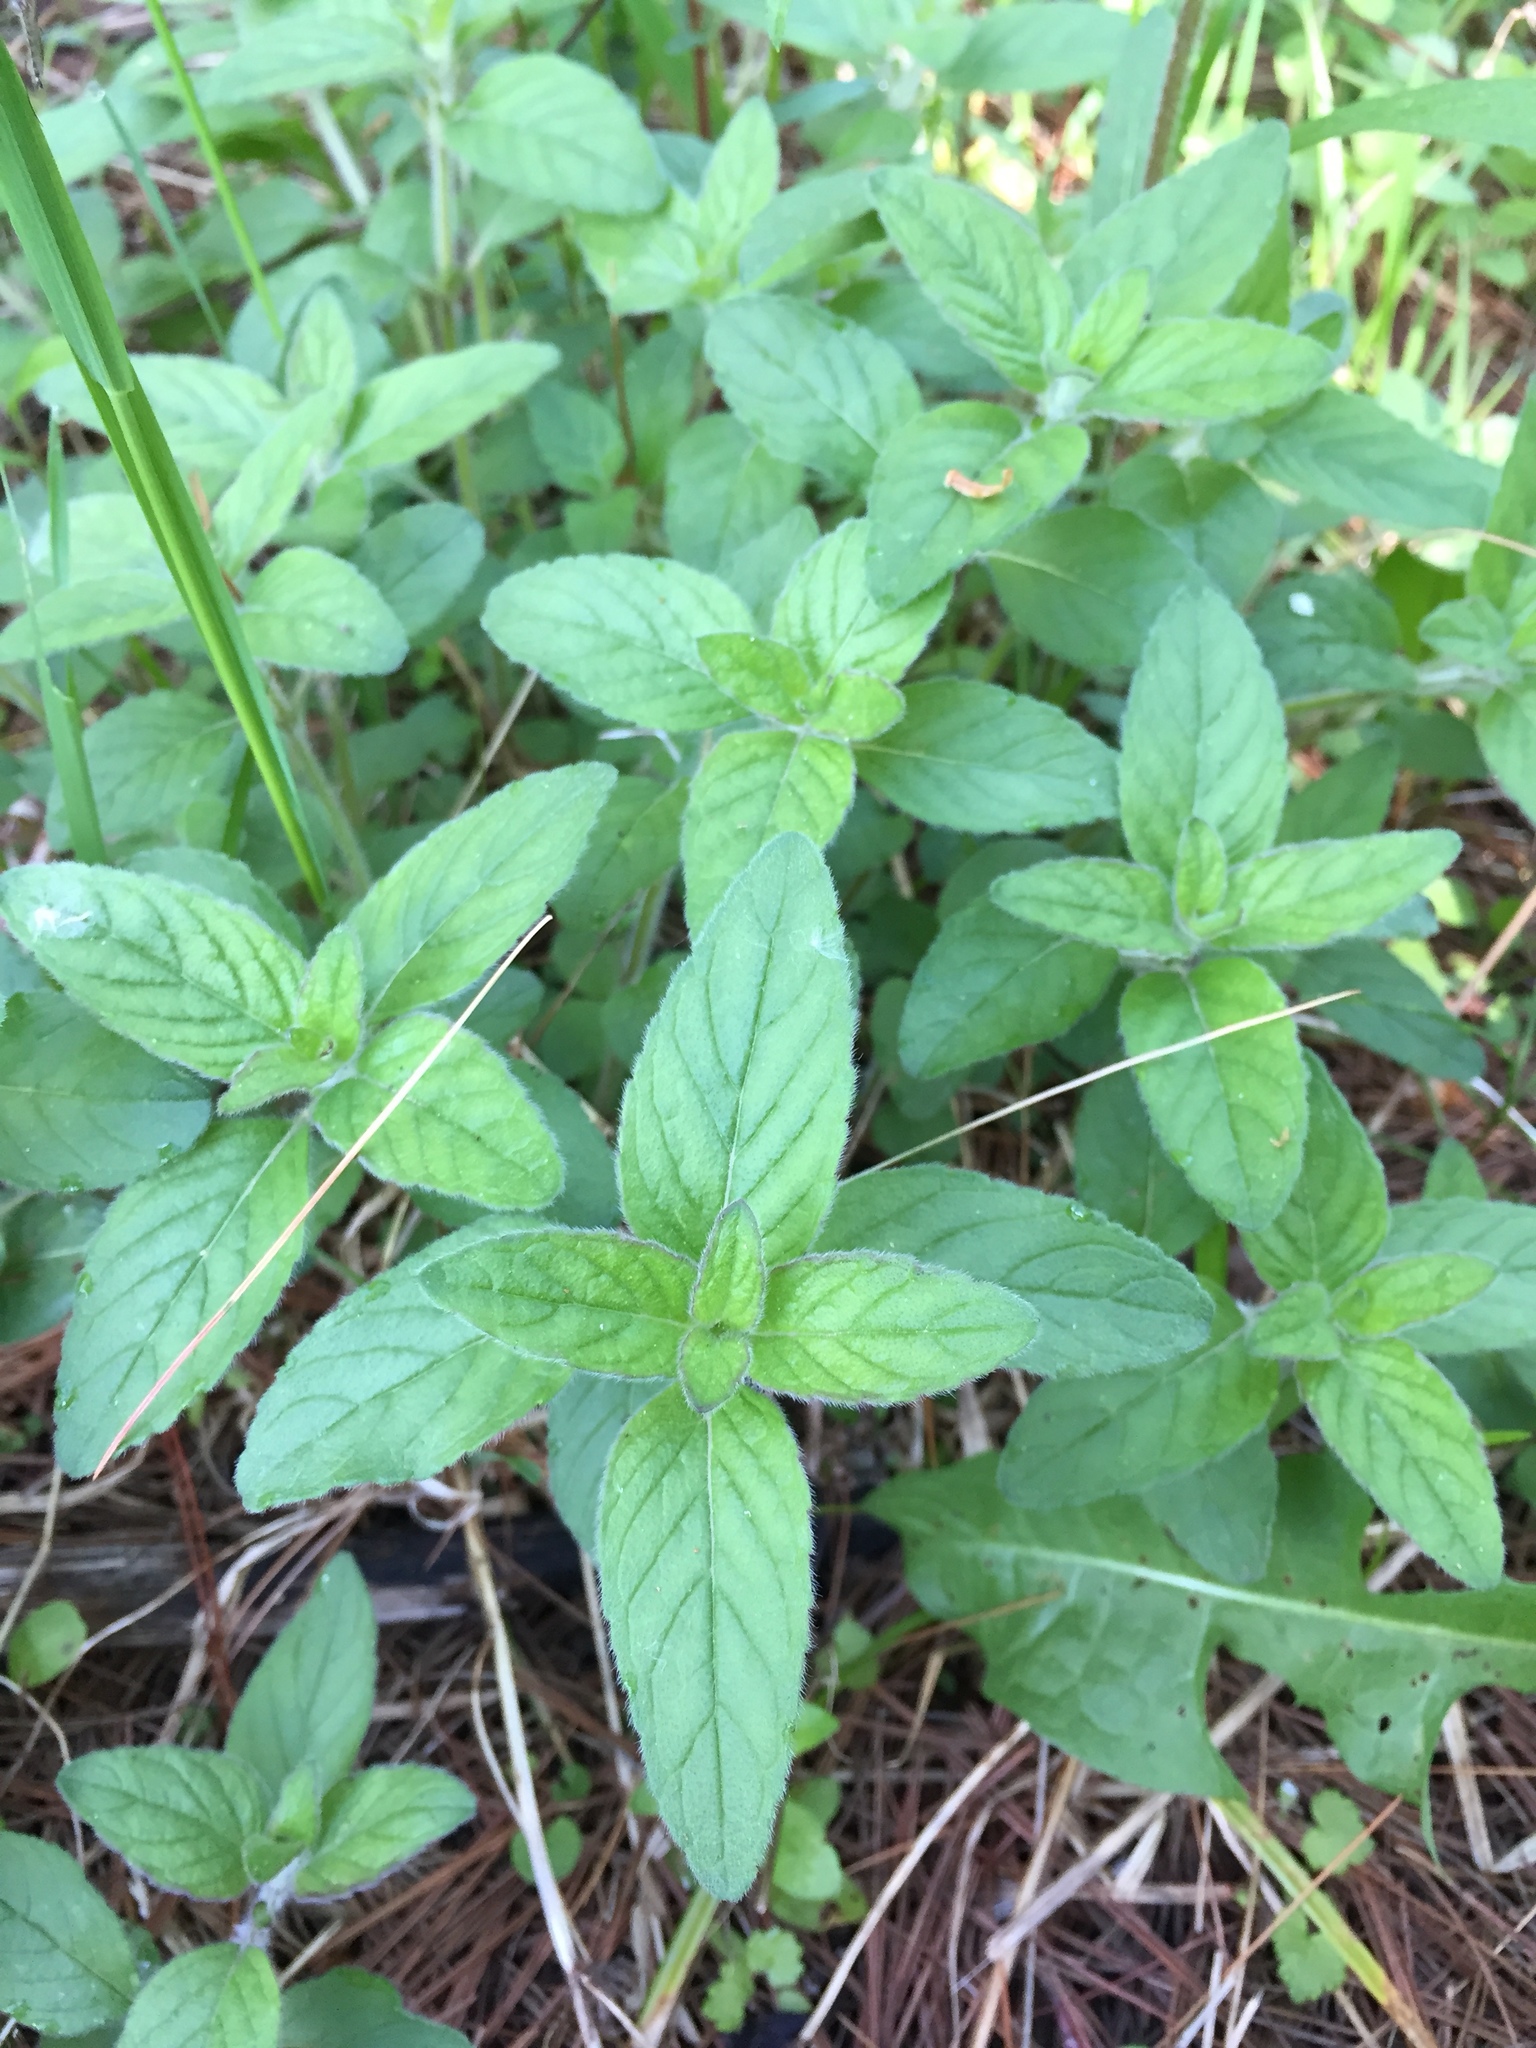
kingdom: Plantae
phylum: Tracheophyta
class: Magnoliopsida
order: Lamiales
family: Lamiaceae
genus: Clinopodium
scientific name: Clinopodium vulgare
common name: Wild basil
